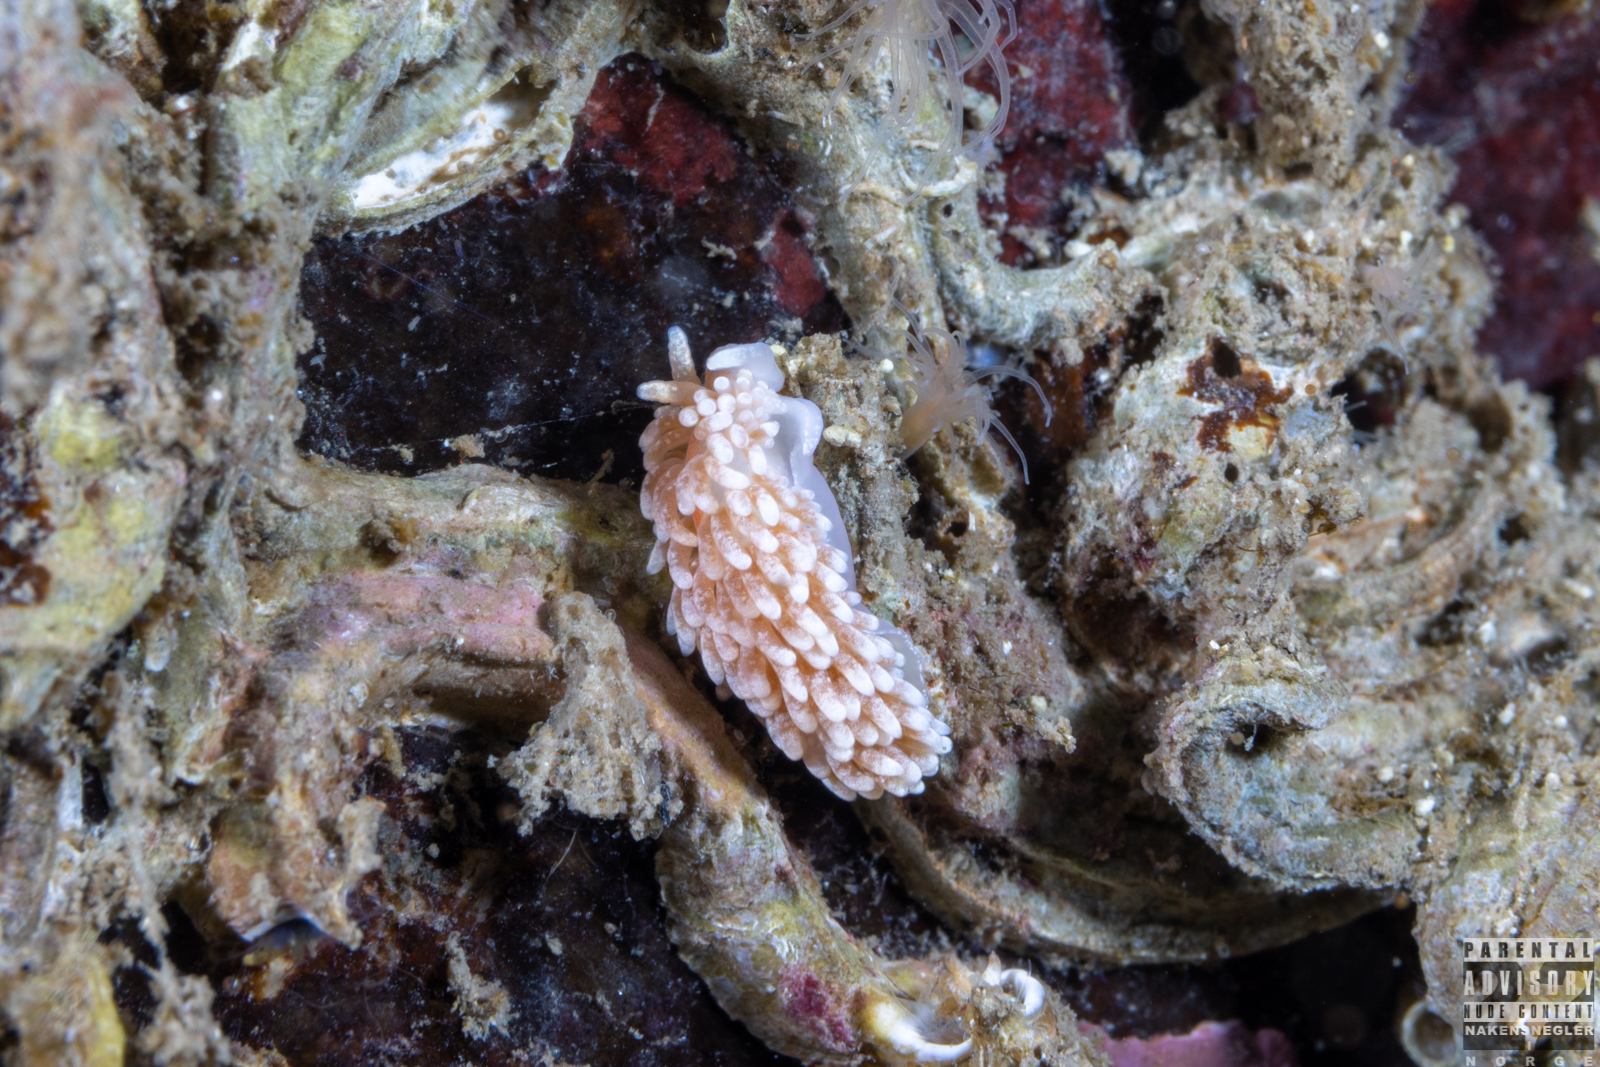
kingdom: Animalia
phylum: Mollusca
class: Gastropoda
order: Nudibranchia
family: Aeolidiidae
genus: Aeolidiella
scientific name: Aeolidiella glauca
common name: Orange-brown aeolid
